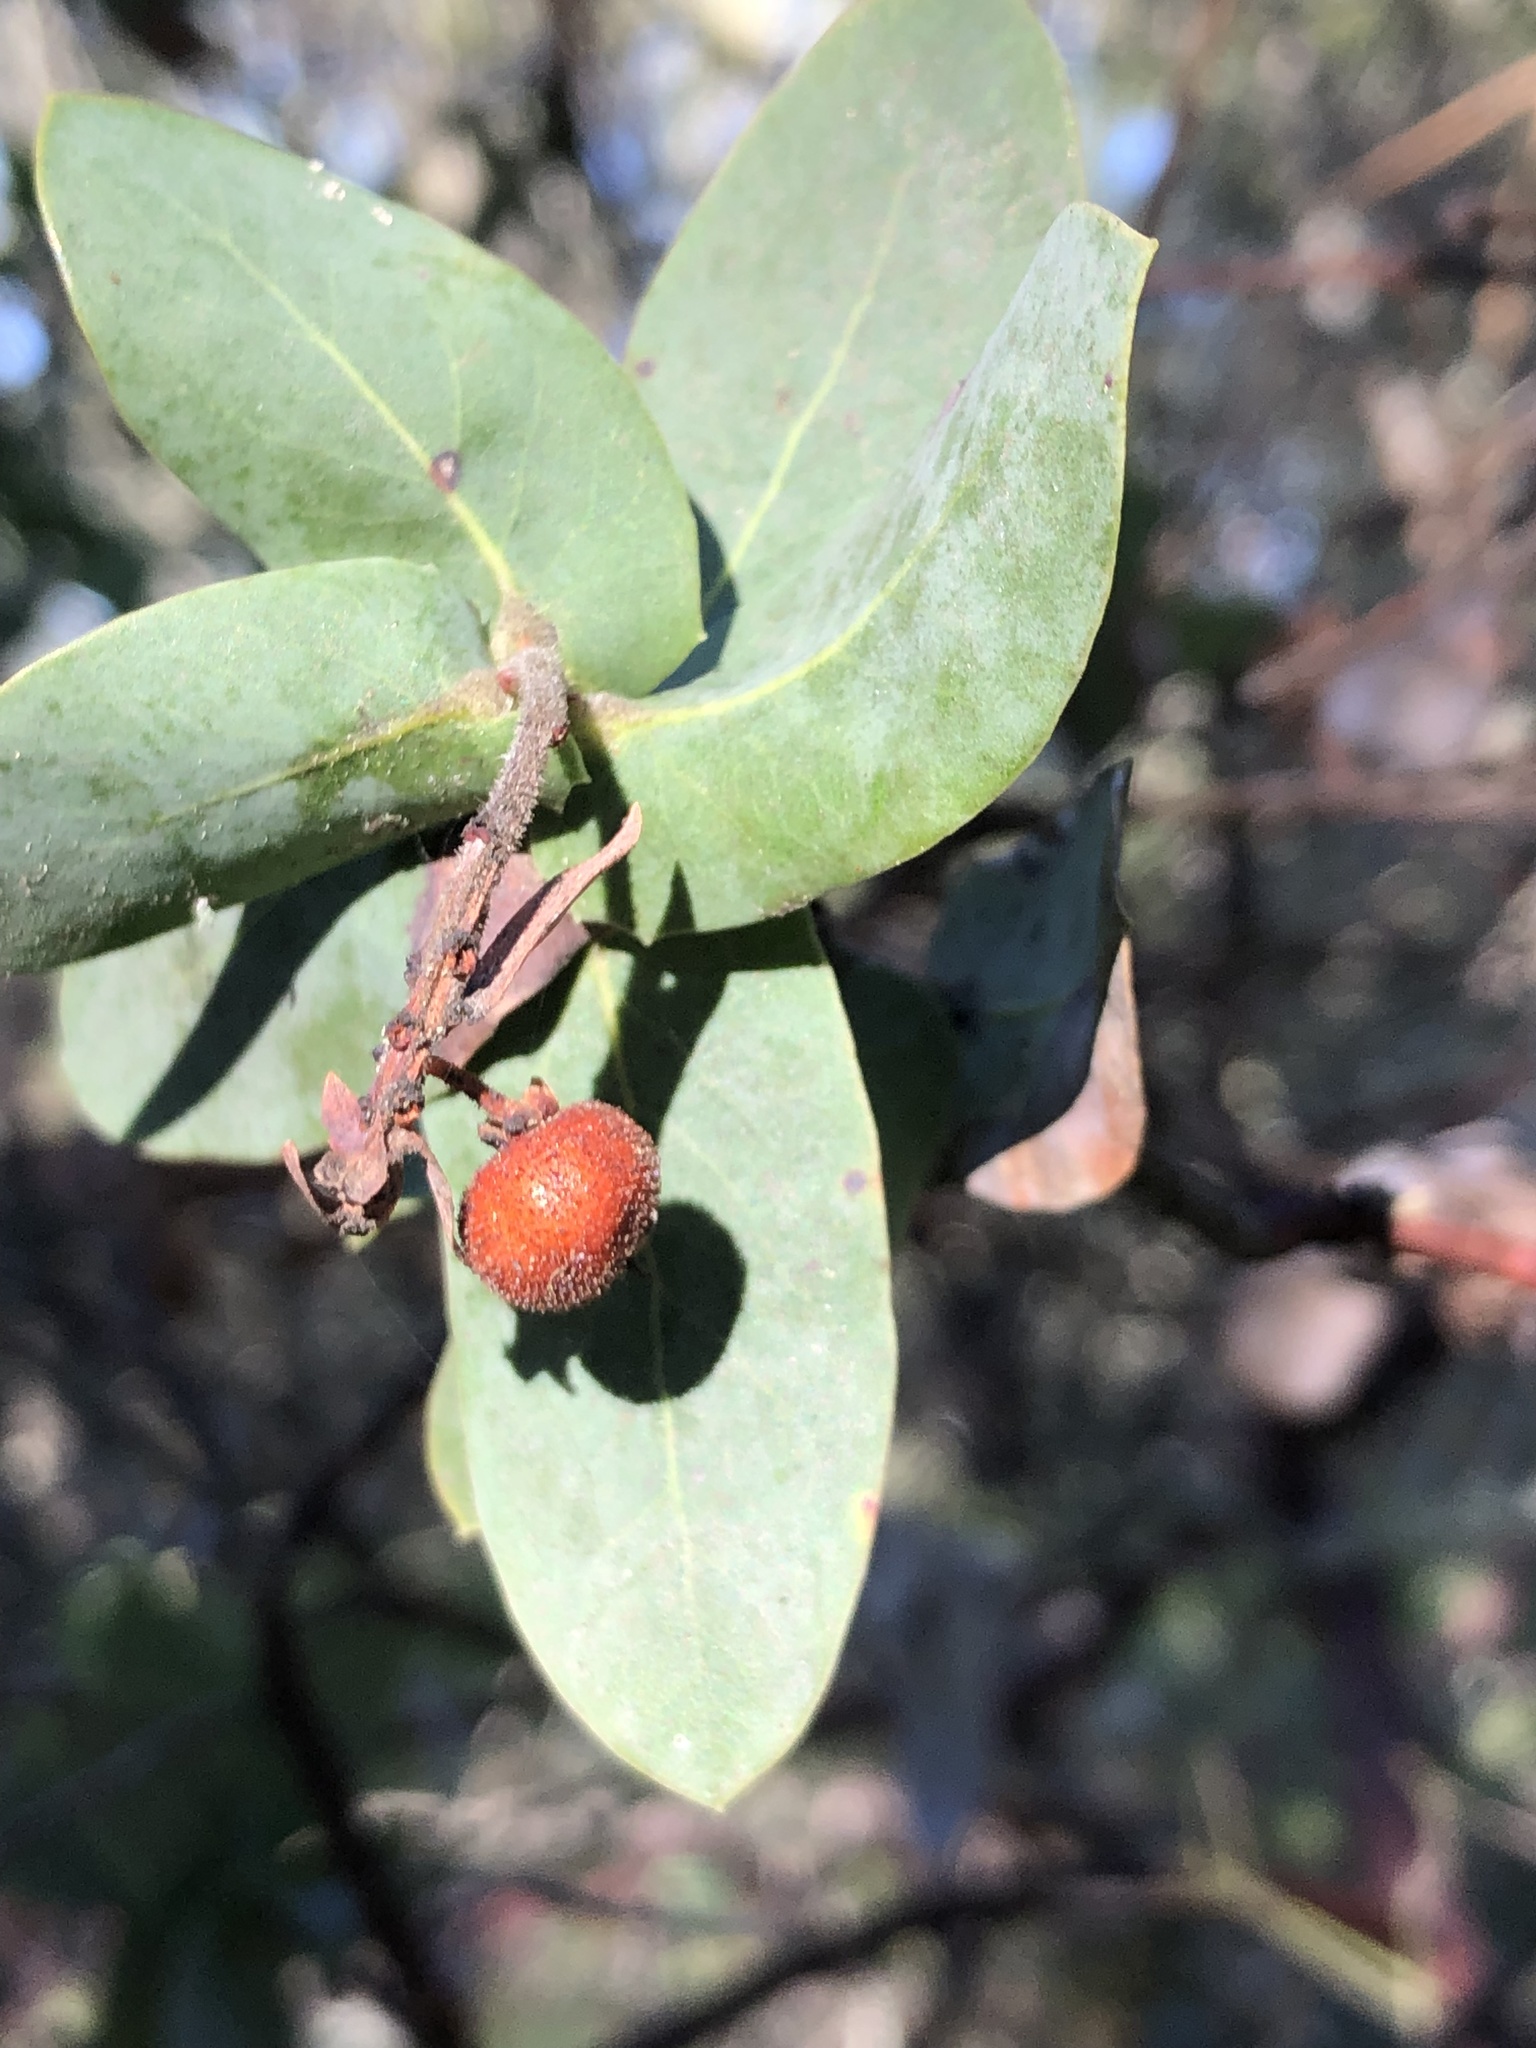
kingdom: Plantae
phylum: Tracheophyta
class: Magnoliopsida
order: Ericales
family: Ericaceae
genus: Arctostaphylos
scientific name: Arctostaphylos pallida
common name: Pallid manzanita
